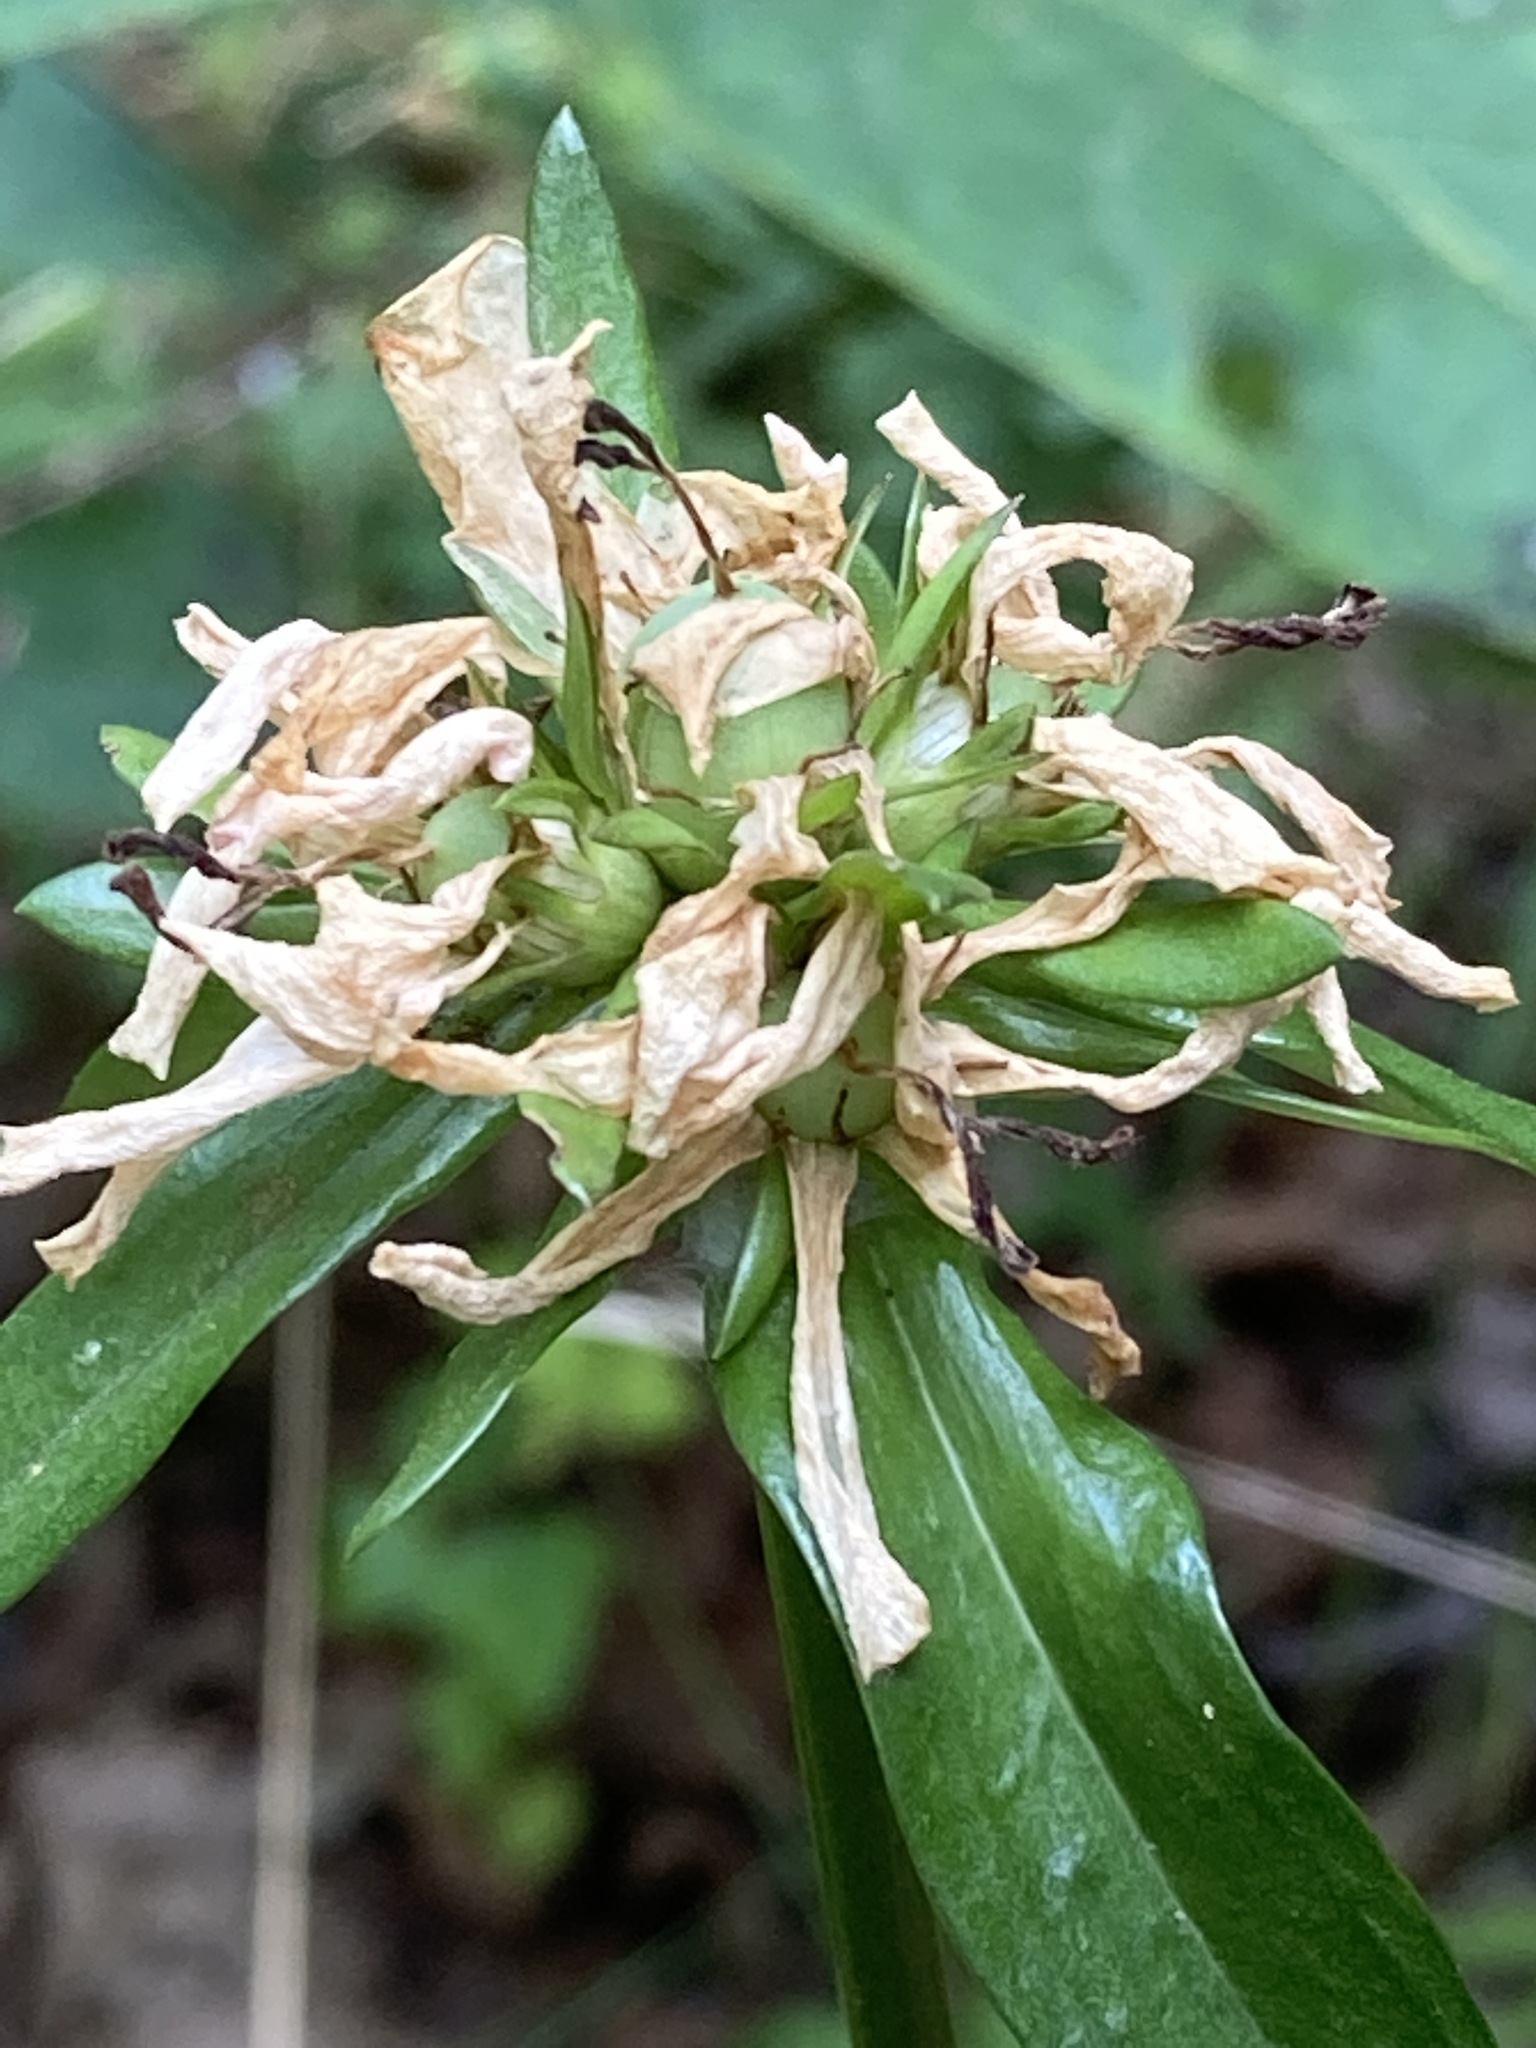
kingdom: Plantae
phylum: Tracheophyta
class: Magnoliopsida
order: Gentianales
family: Gentianaceae
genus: Sabatia
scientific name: Sabatia capitata
